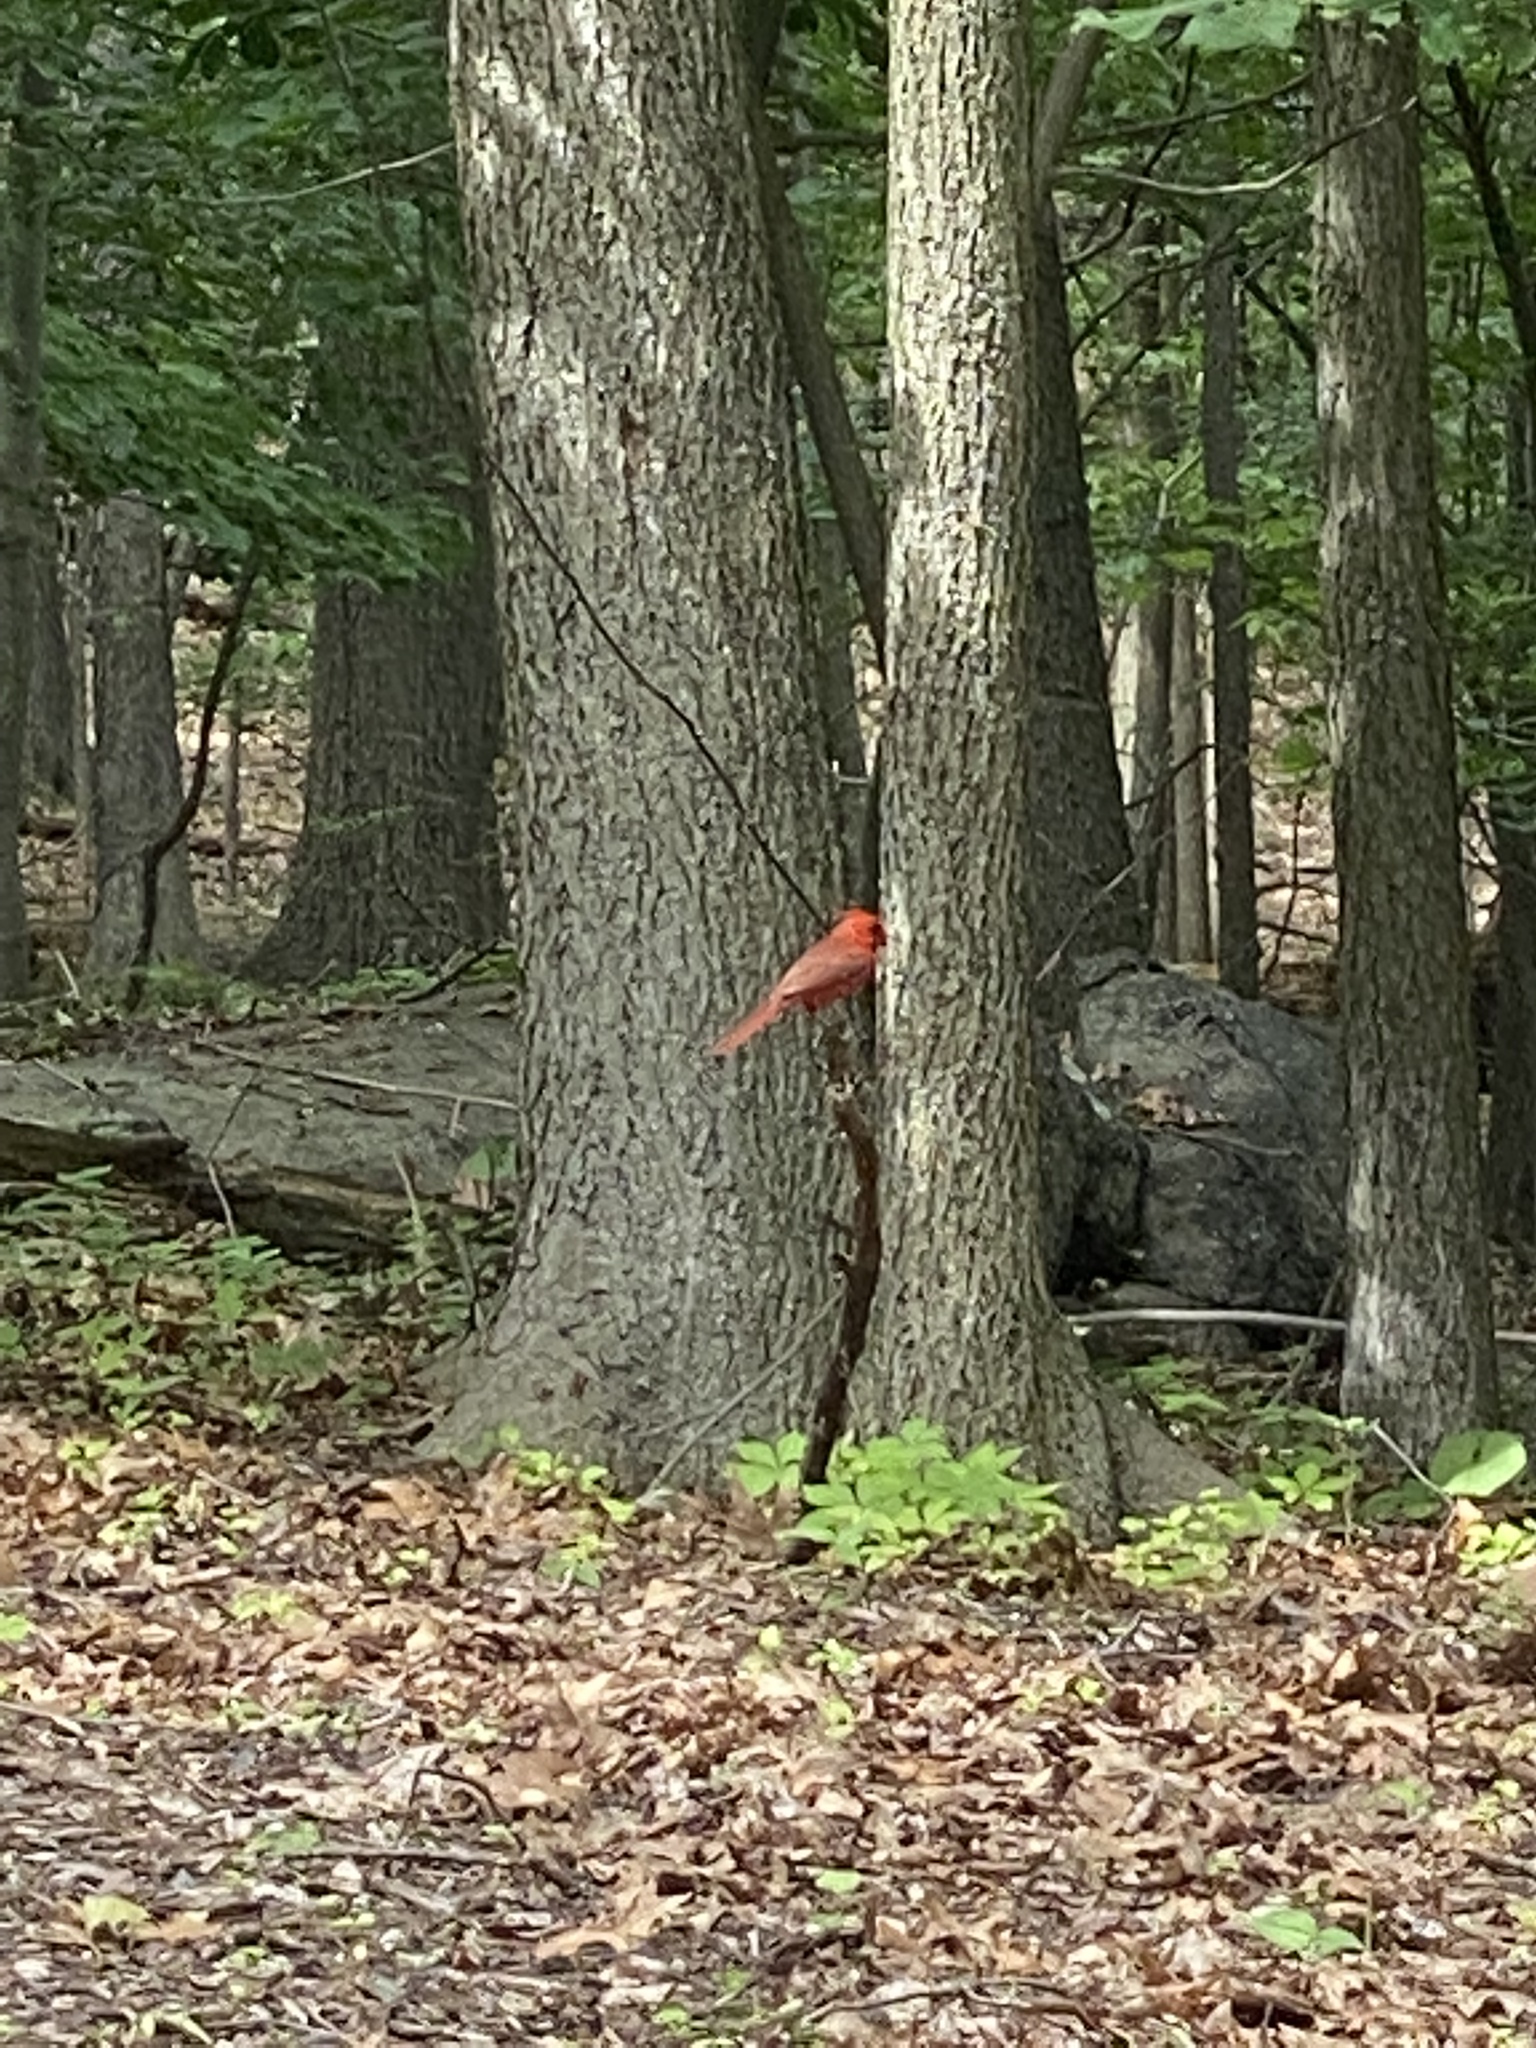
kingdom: Animalia
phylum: Chordata
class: Aves
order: Passeriformes
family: Cardinalidae
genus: Cardinalis
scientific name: Cardinalis cardinalis
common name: Northern cardinal
